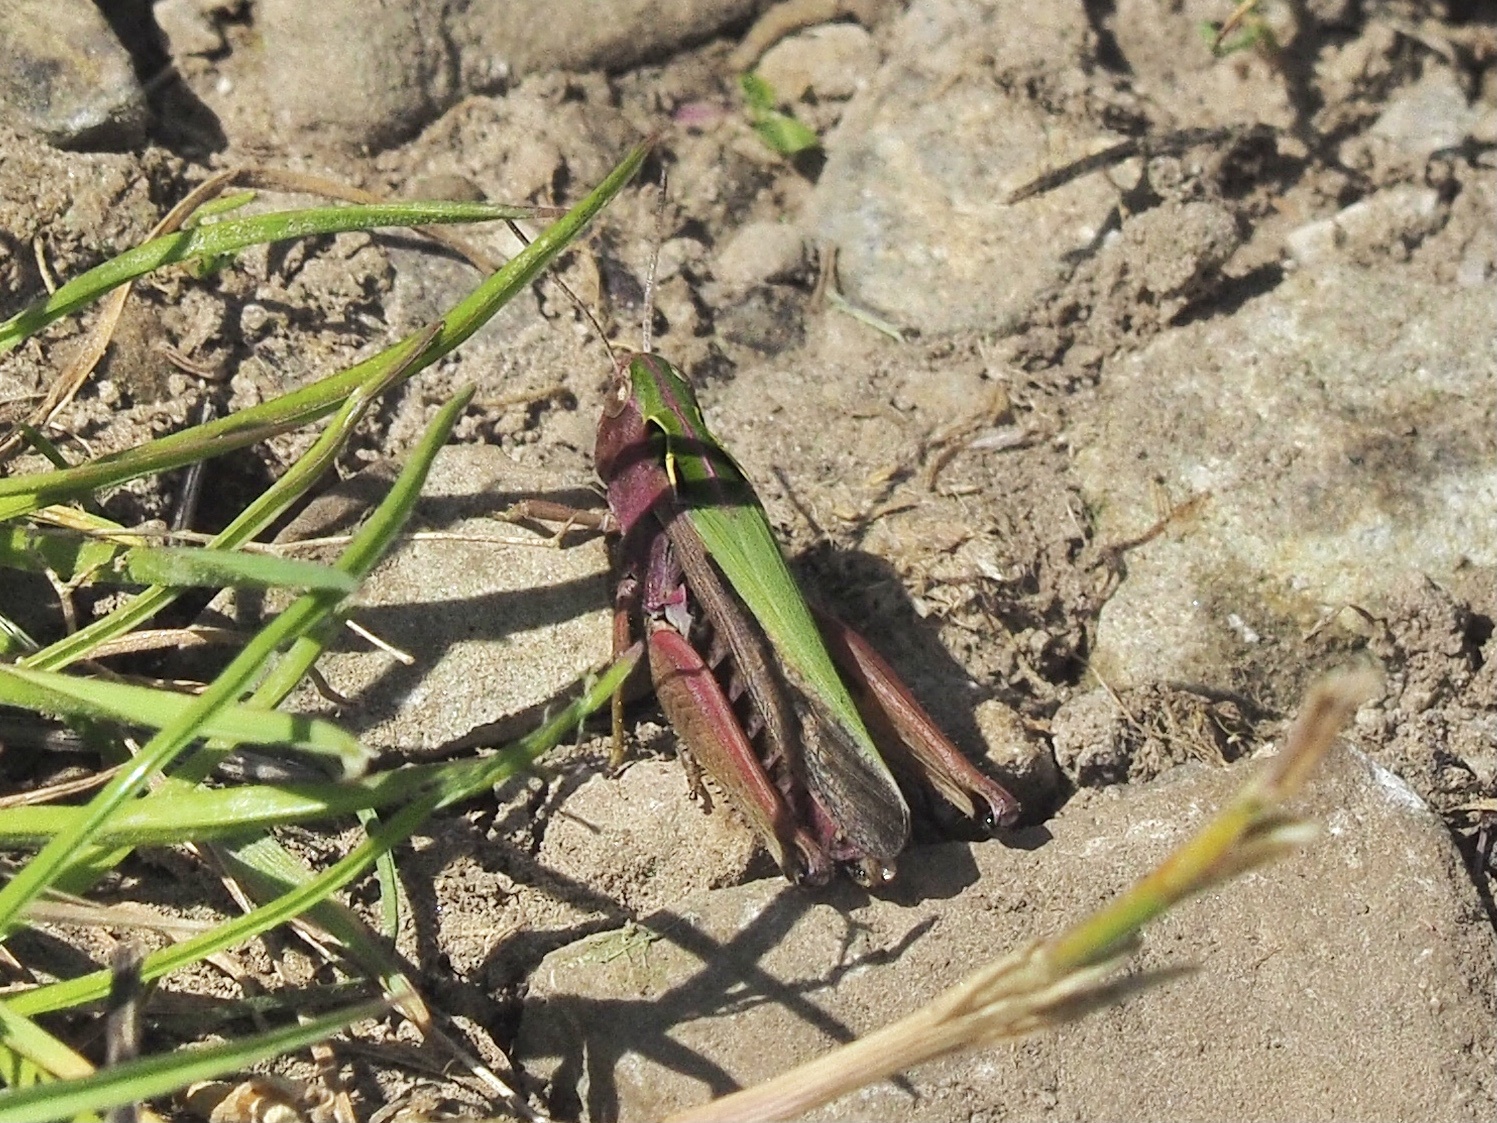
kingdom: Animalia
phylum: Arthropoda
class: Insecta
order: Orthoptera
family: Acrididae
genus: Omocestus
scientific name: Omocestus viridulus
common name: Common green grasshopper
